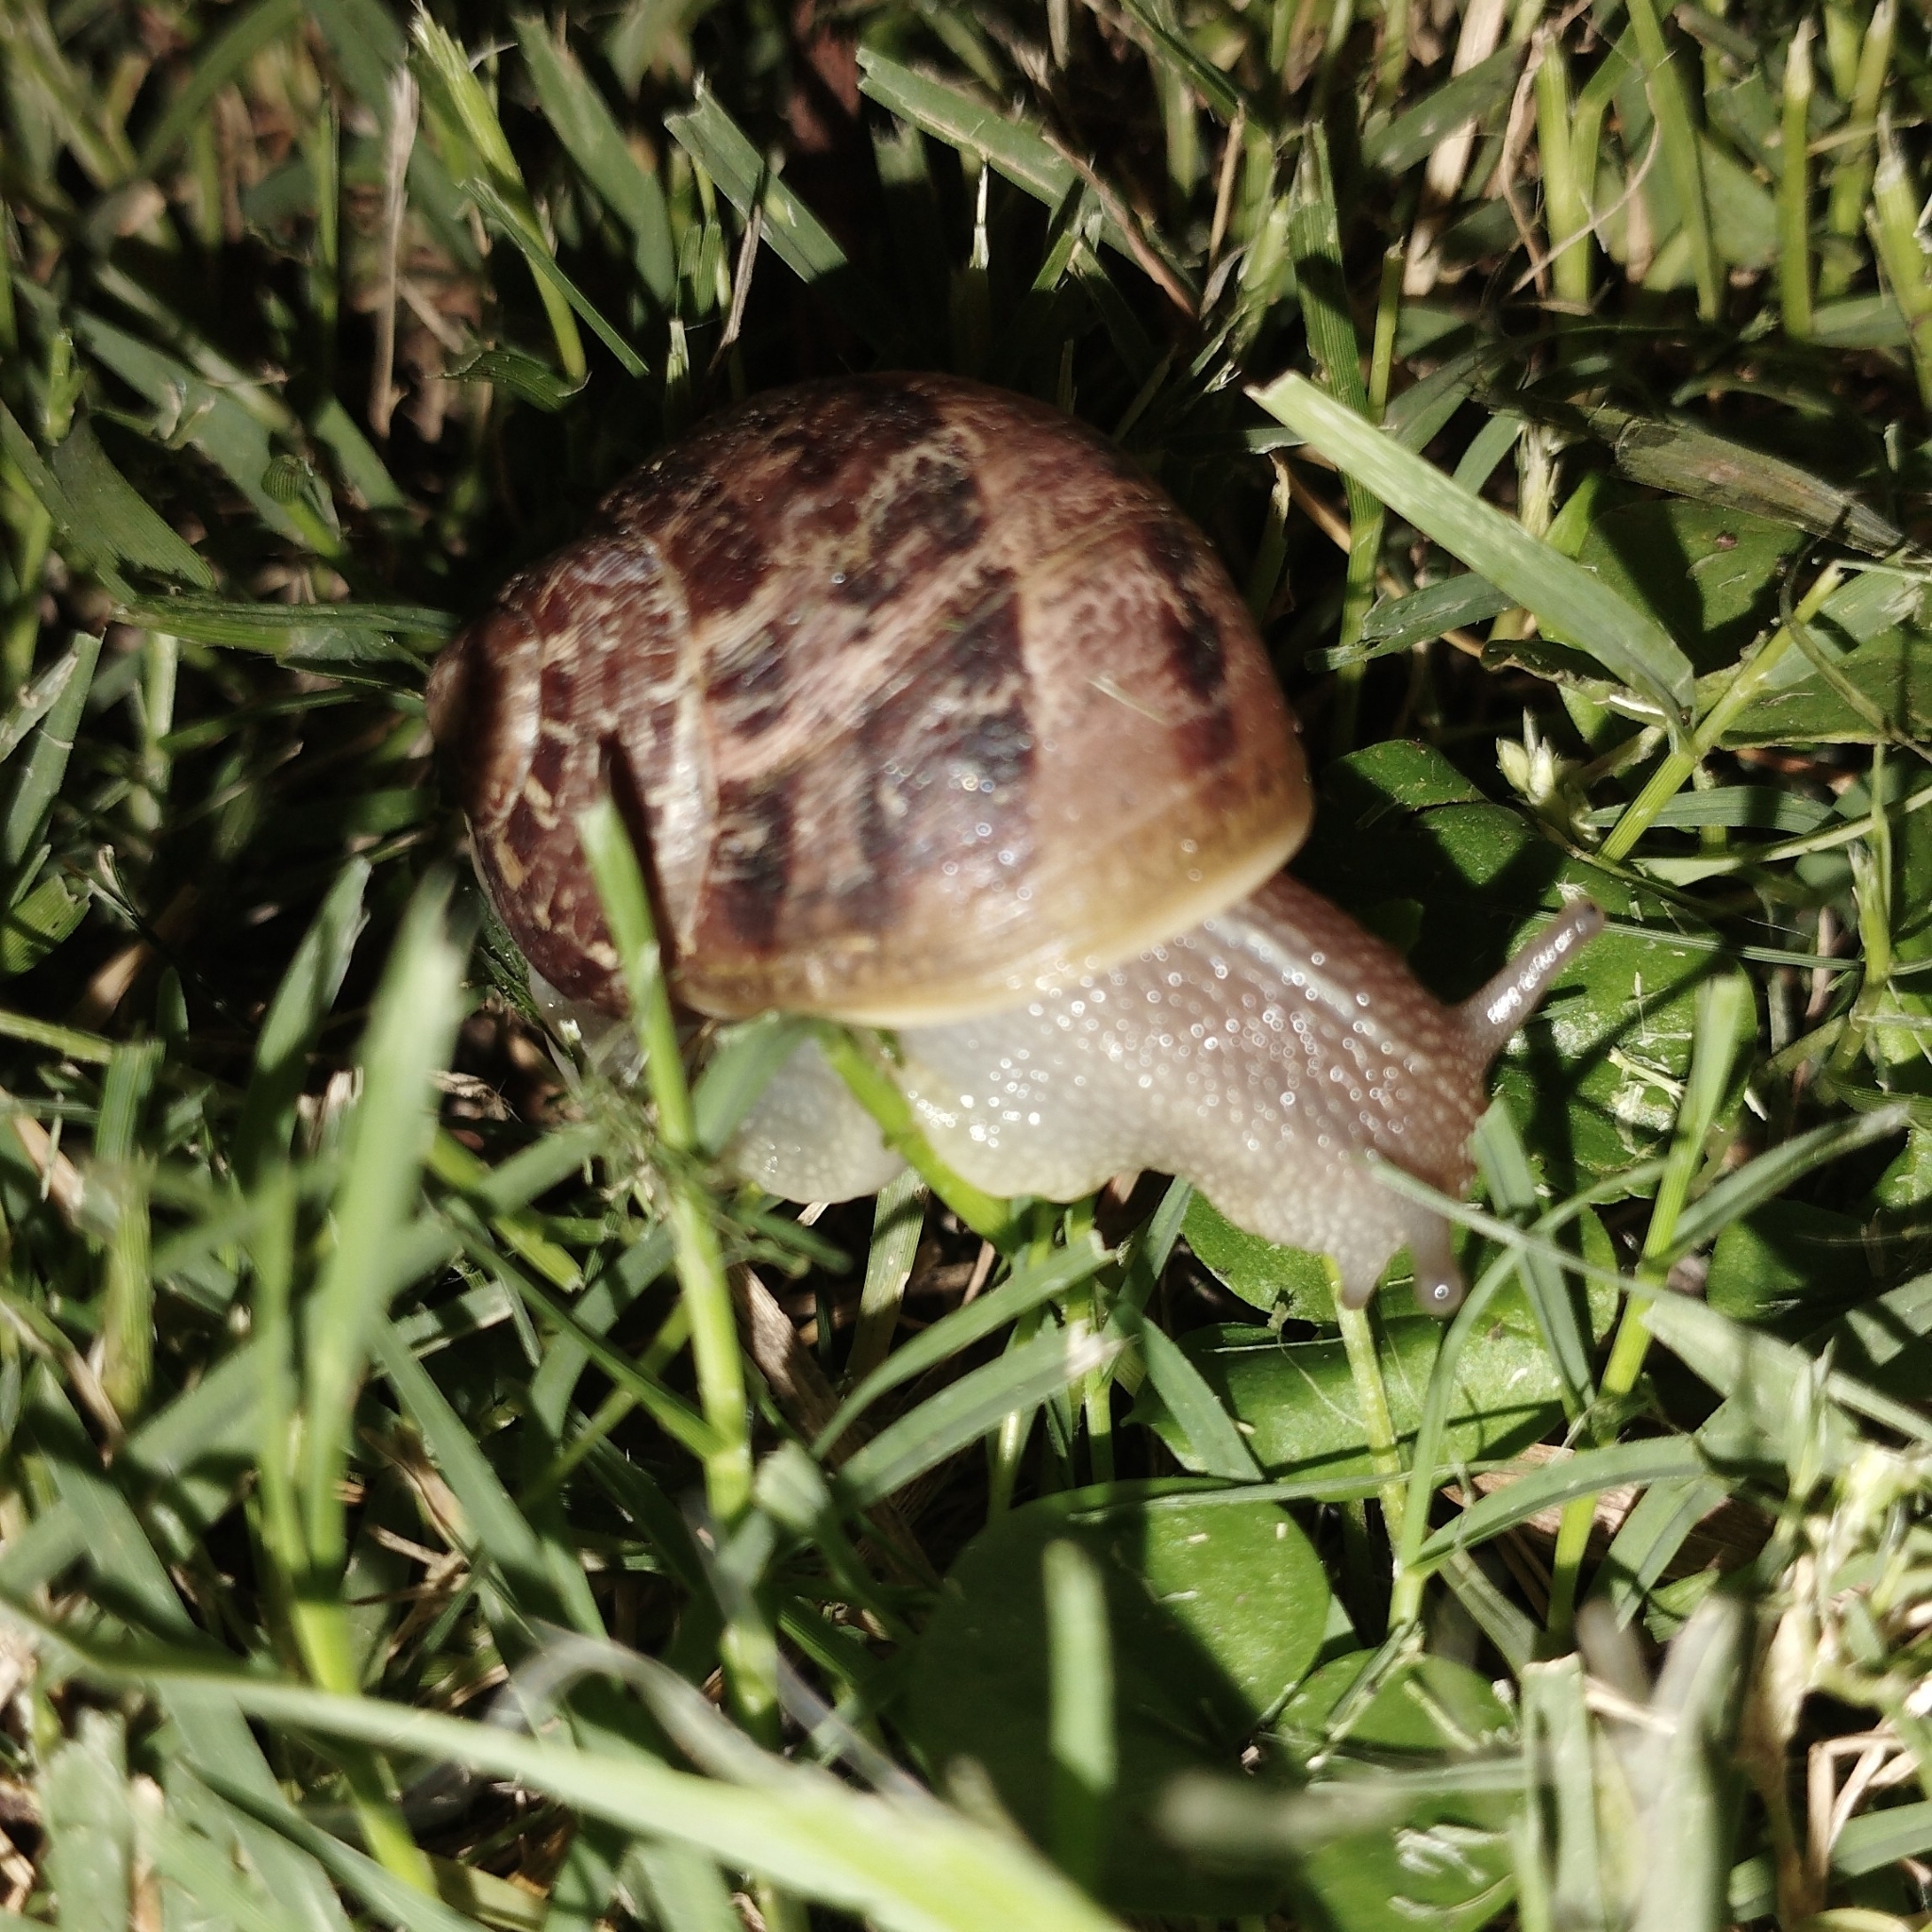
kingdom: Animalia
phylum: Mollusca
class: Gastropoda
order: Stylommatophora
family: Helicidae
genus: Cornu
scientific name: Cornu aspersum
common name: Brown garden snail
